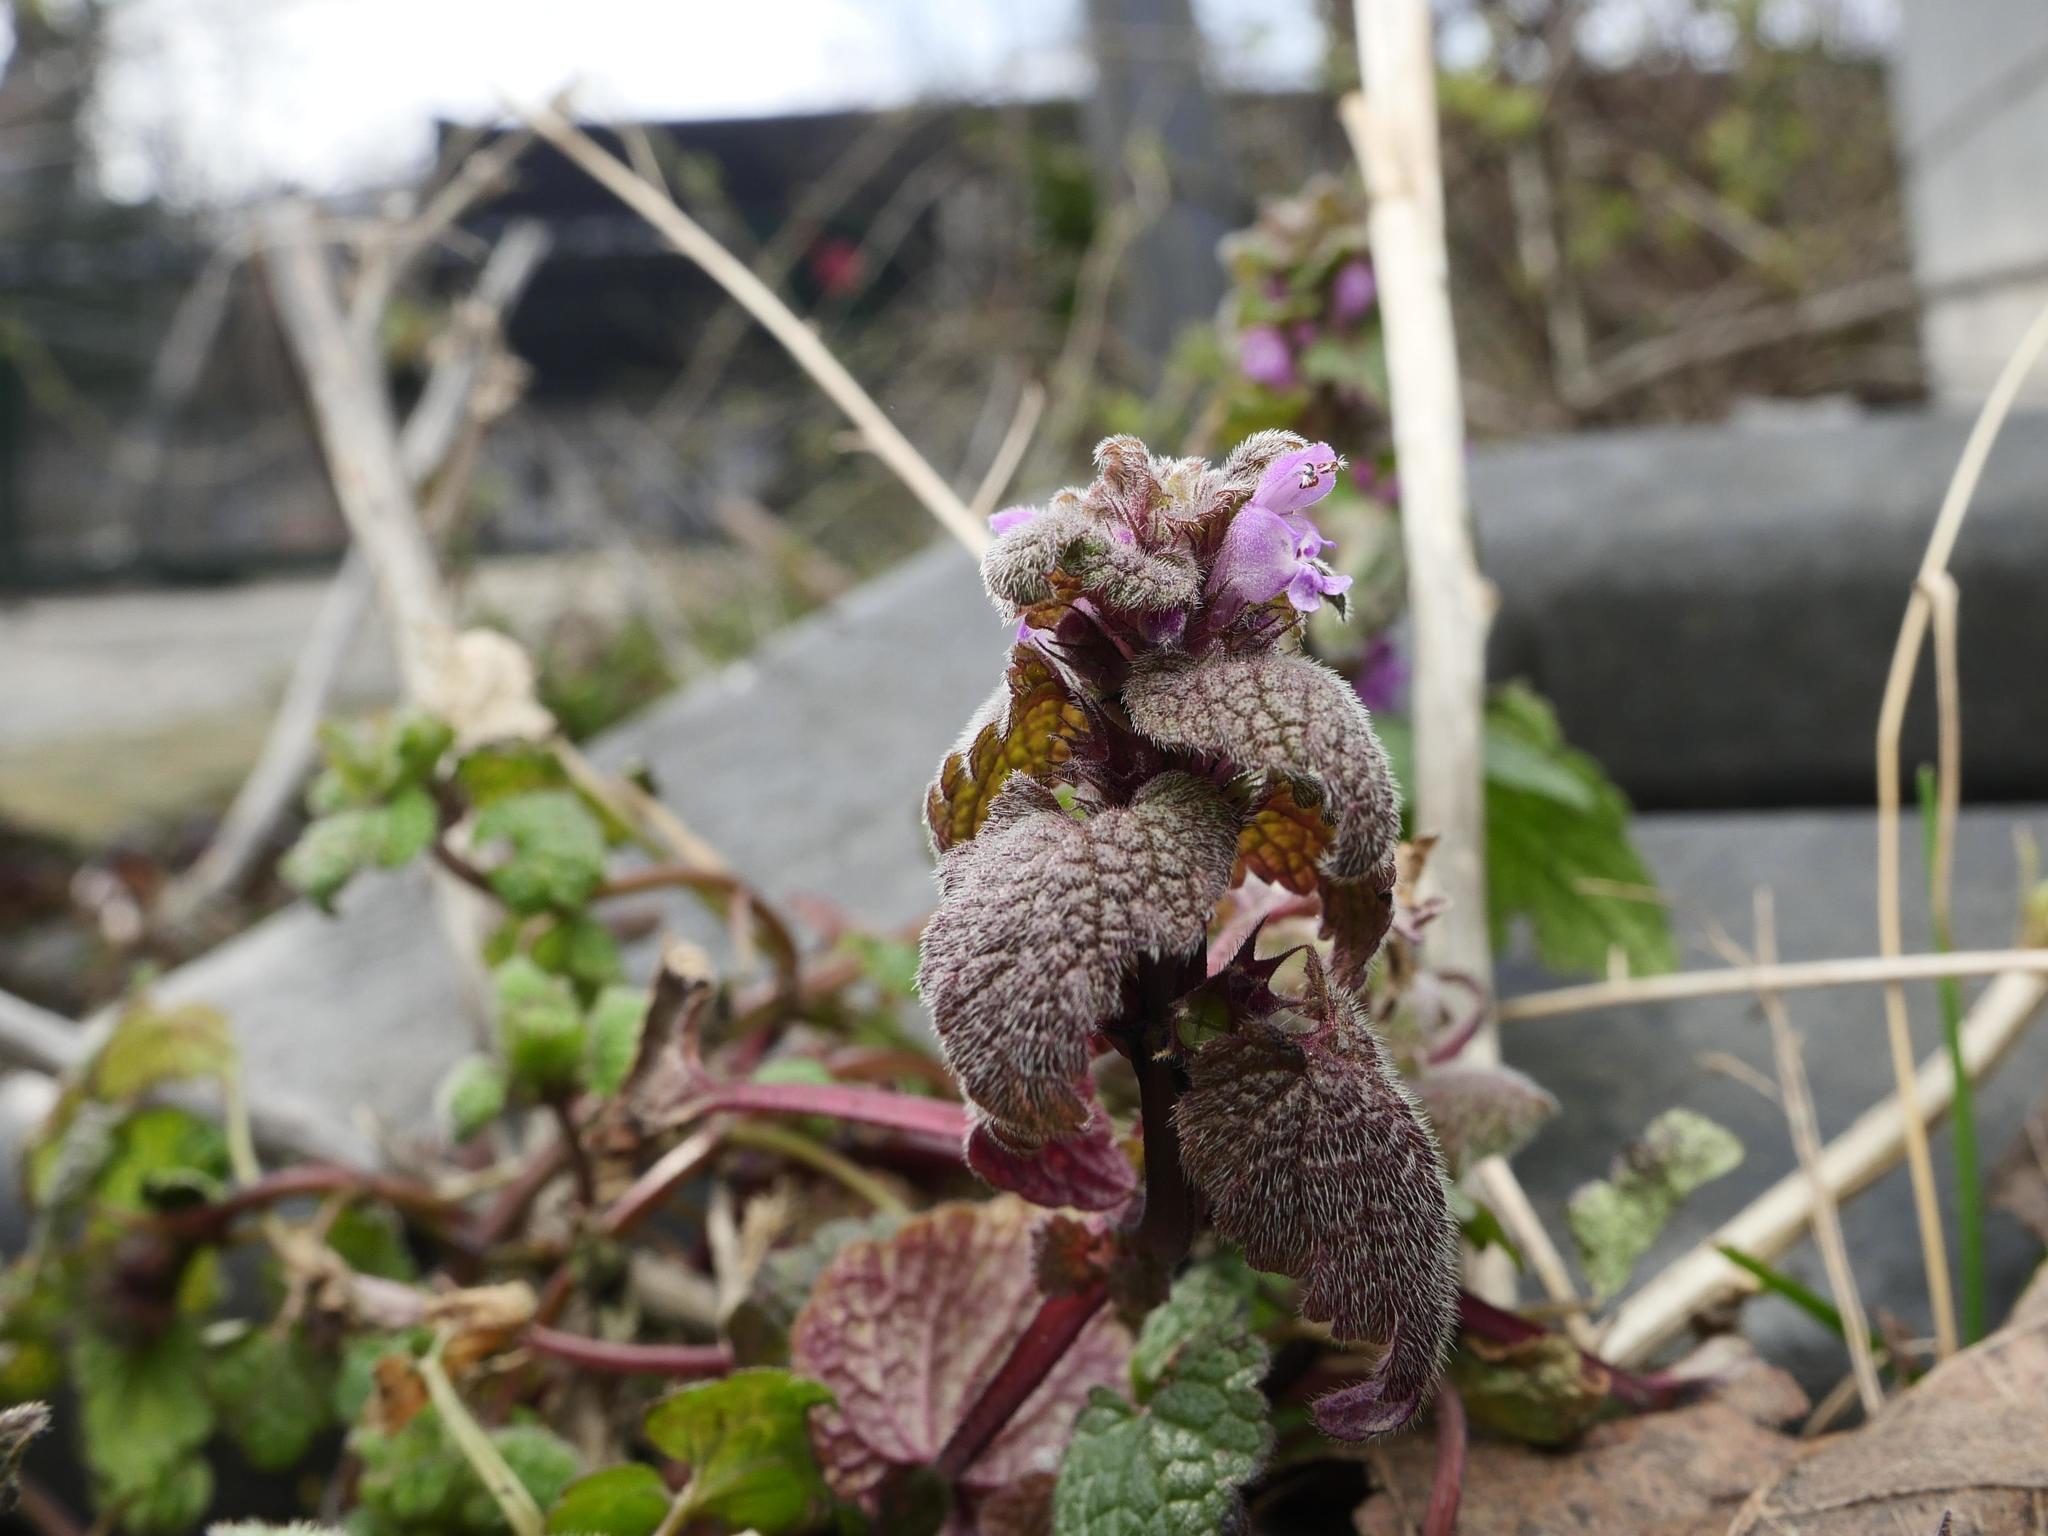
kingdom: Plantae
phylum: Tracheophyta
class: Magnoliopsida
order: Lamiales
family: Lamiaceae
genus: Lamium
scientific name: Lamium purpureum
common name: Red dead-nettle
